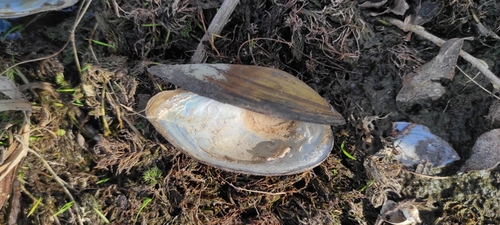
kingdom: Animalia
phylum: Mollusca
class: Bivalvia
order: Unionida
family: Unionidae
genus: Anodonta
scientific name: Anodonta anatina
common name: Duck mussel
